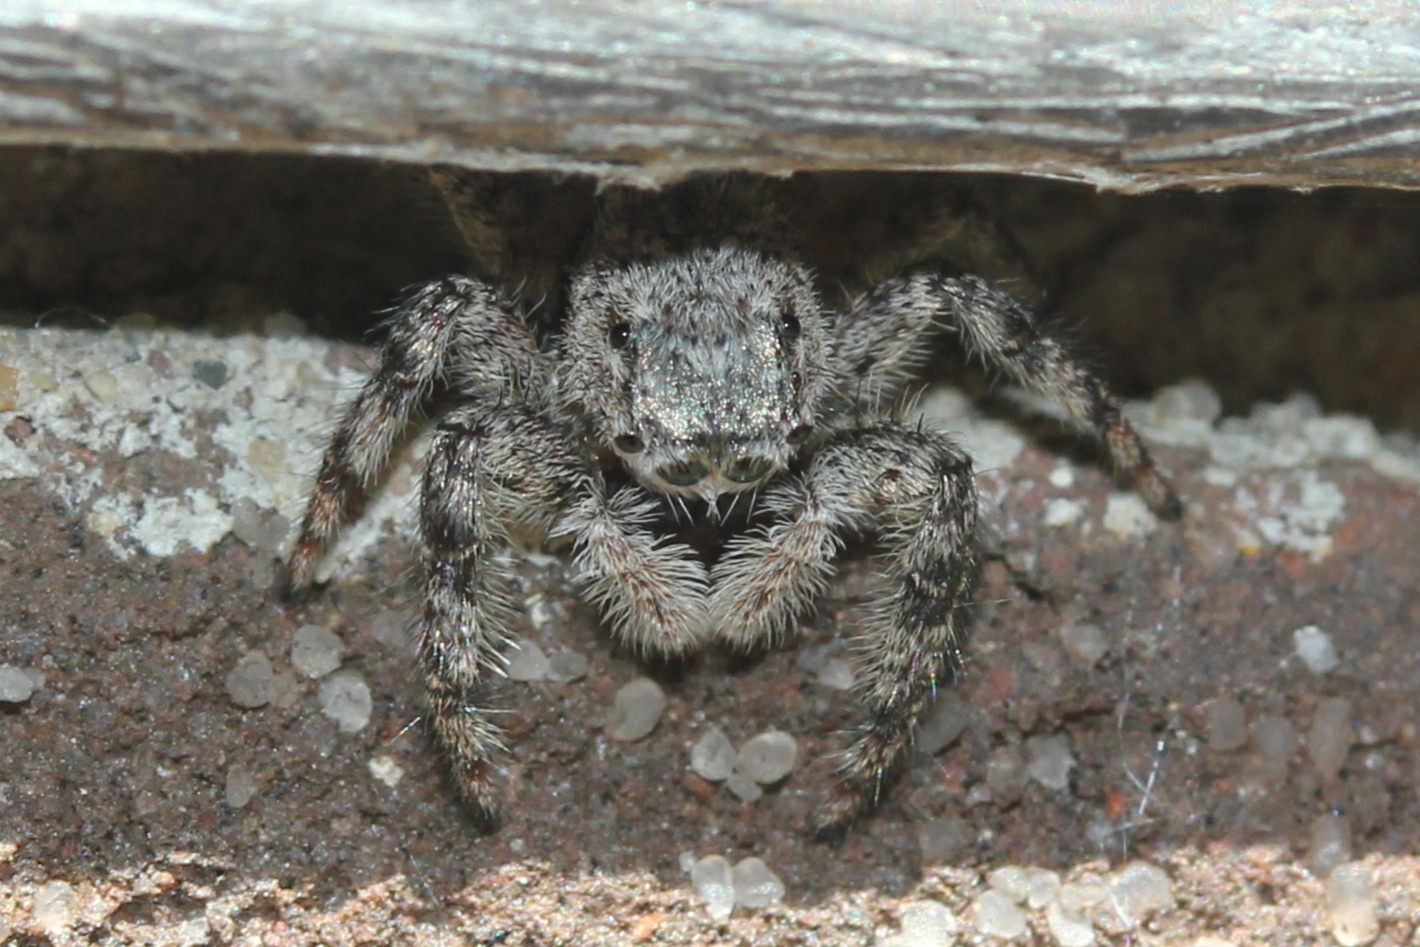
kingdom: Animalia
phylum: Arthropoda
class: Arachnida
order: Araneae
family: Salticidae
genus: Platycryptus
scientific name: Platycryptus undatus
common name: Tan jumping spider
